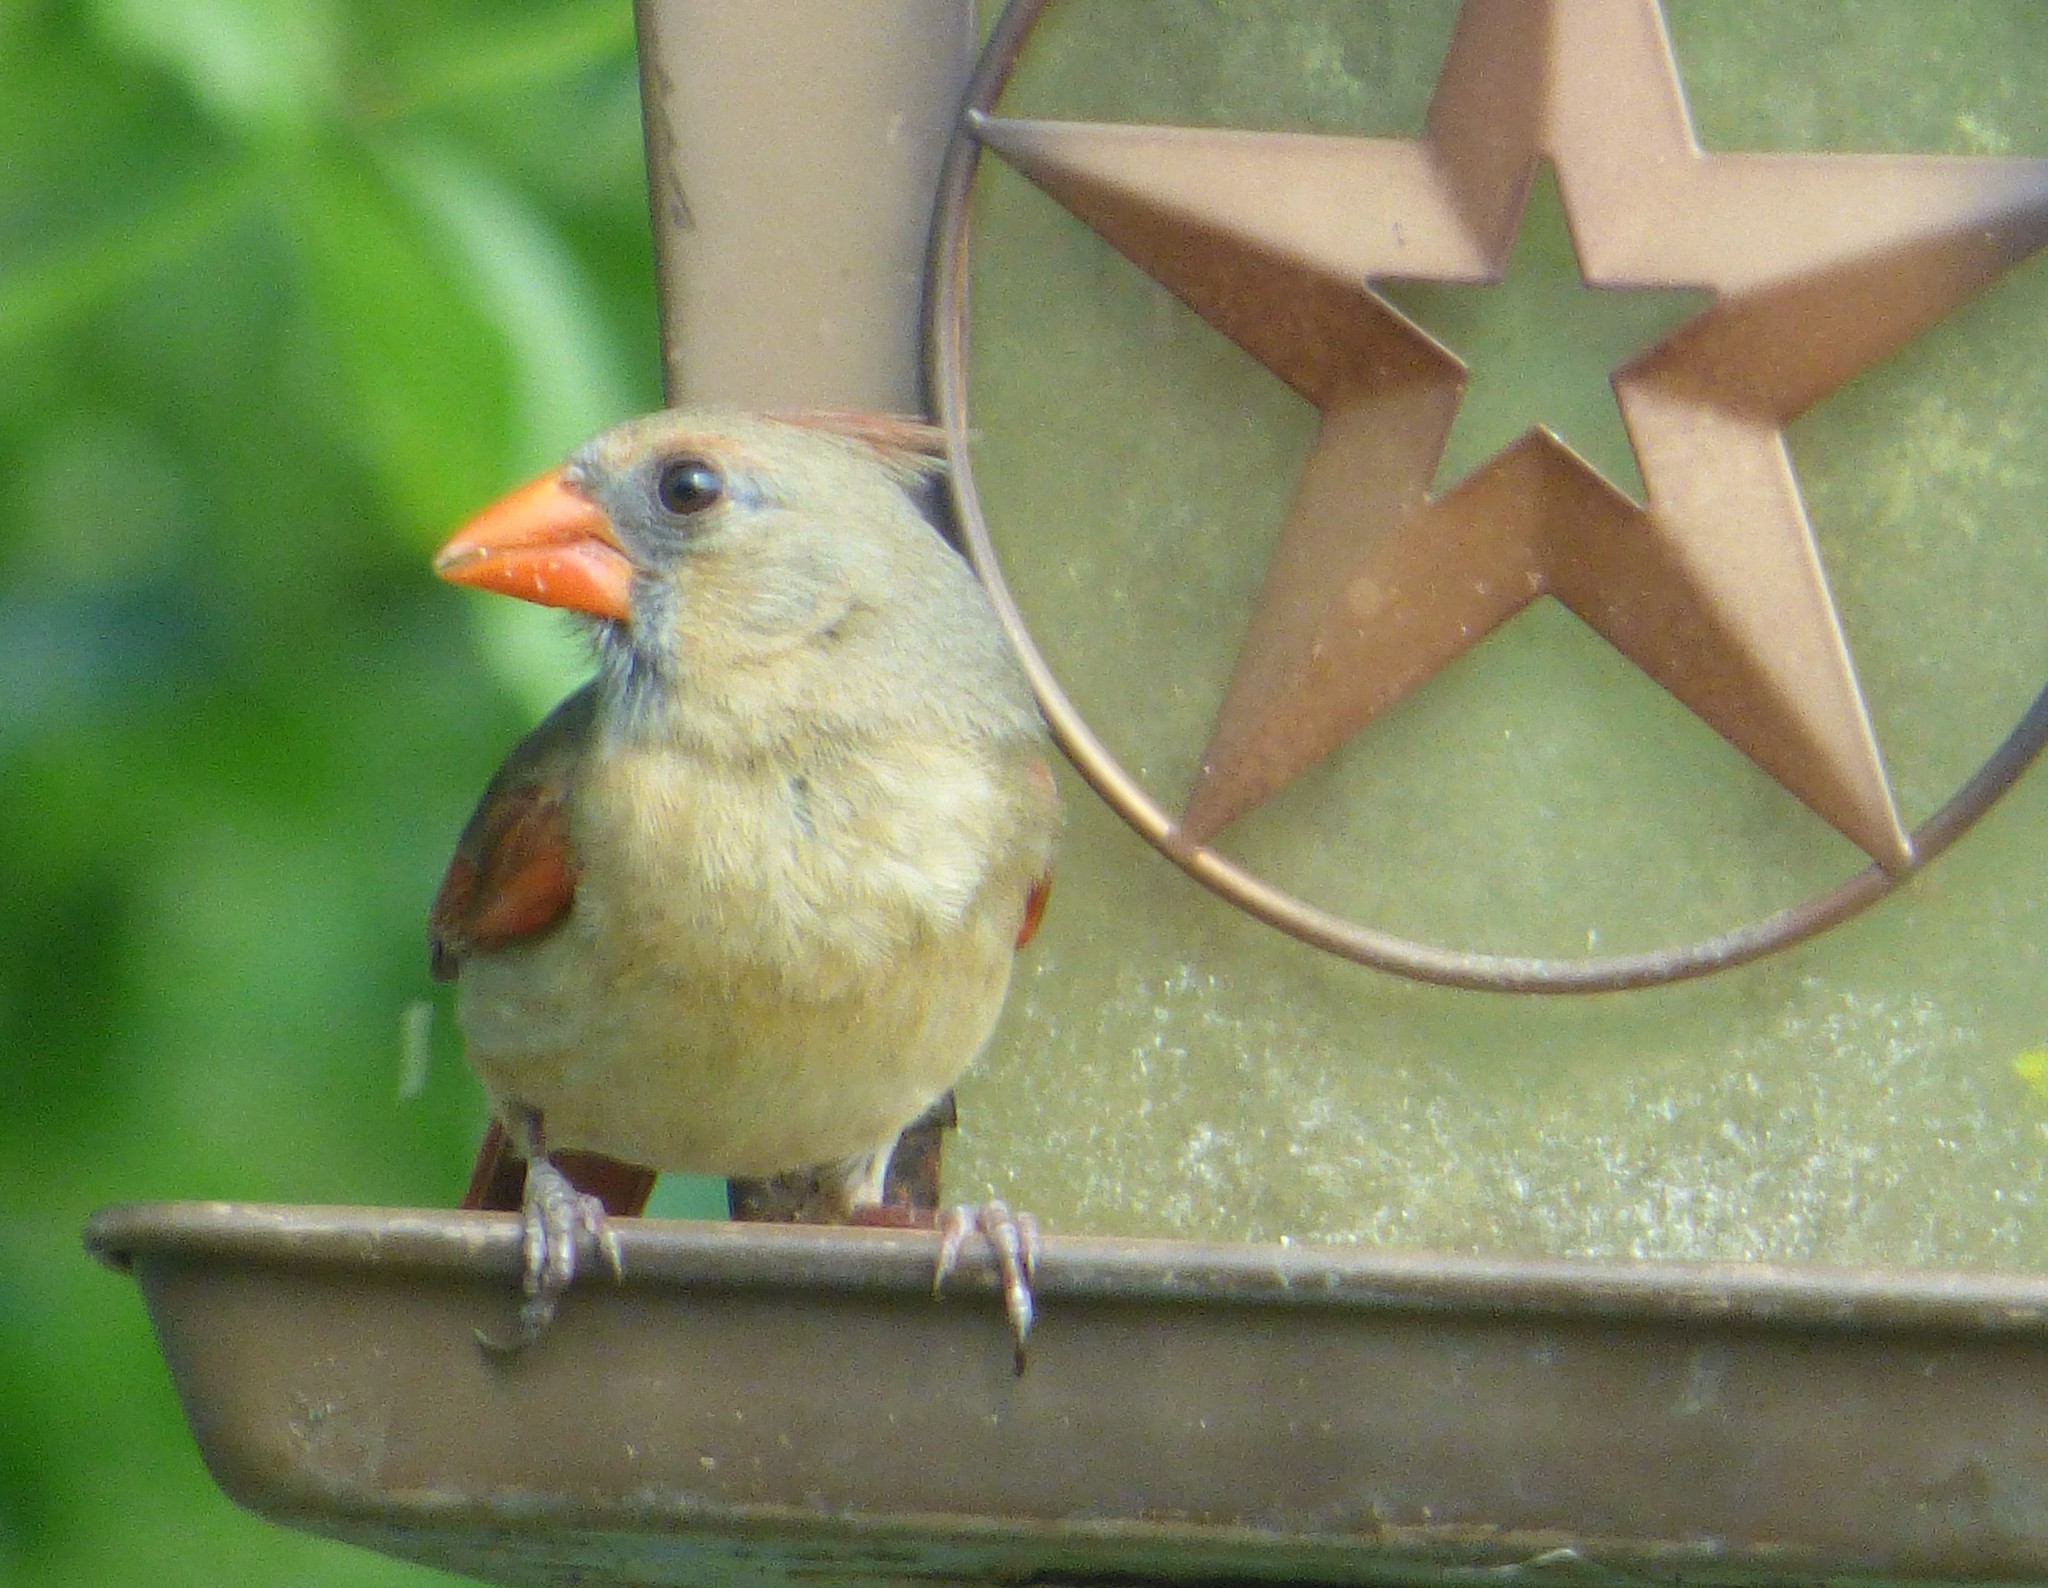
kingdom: Animalia
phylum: Chordata
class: Aves
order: Passeriformes
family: Cardinalidae
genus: Cardinalis
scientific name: Cardinalis cardinalis
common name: Northern cardinal
